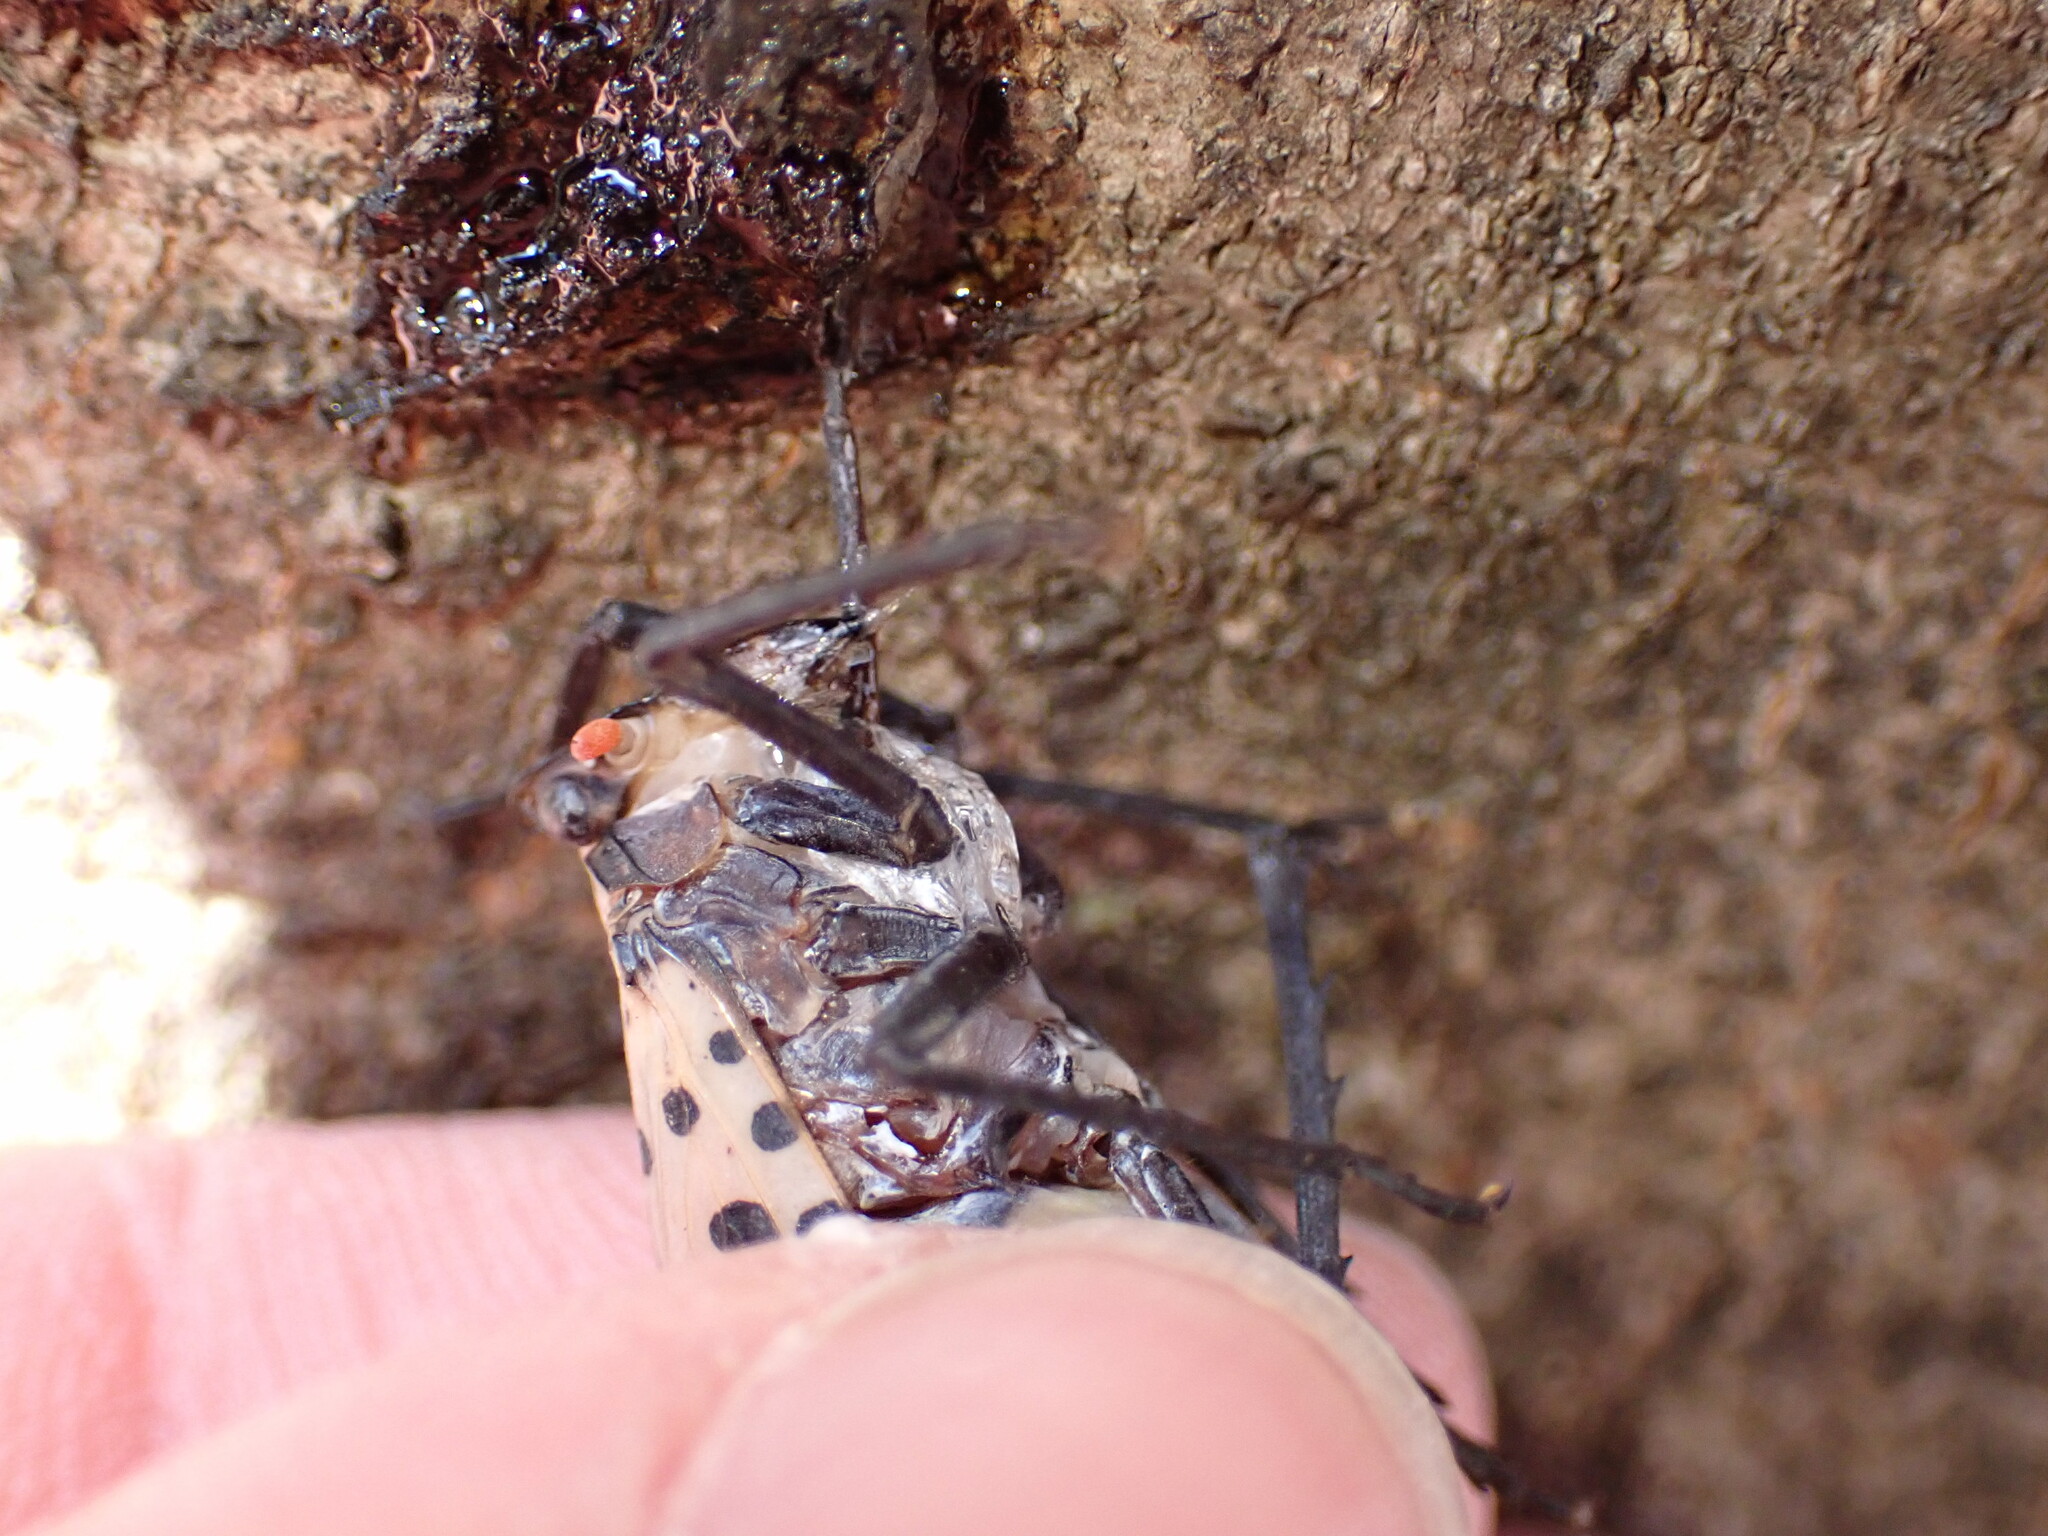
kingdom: Animalia
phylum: Arthropoda
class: Insecta
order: Hemiptera
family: Fulgoridae
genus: Lycorma
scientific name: Lycorma delicatula
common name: Spotted lanternfly
